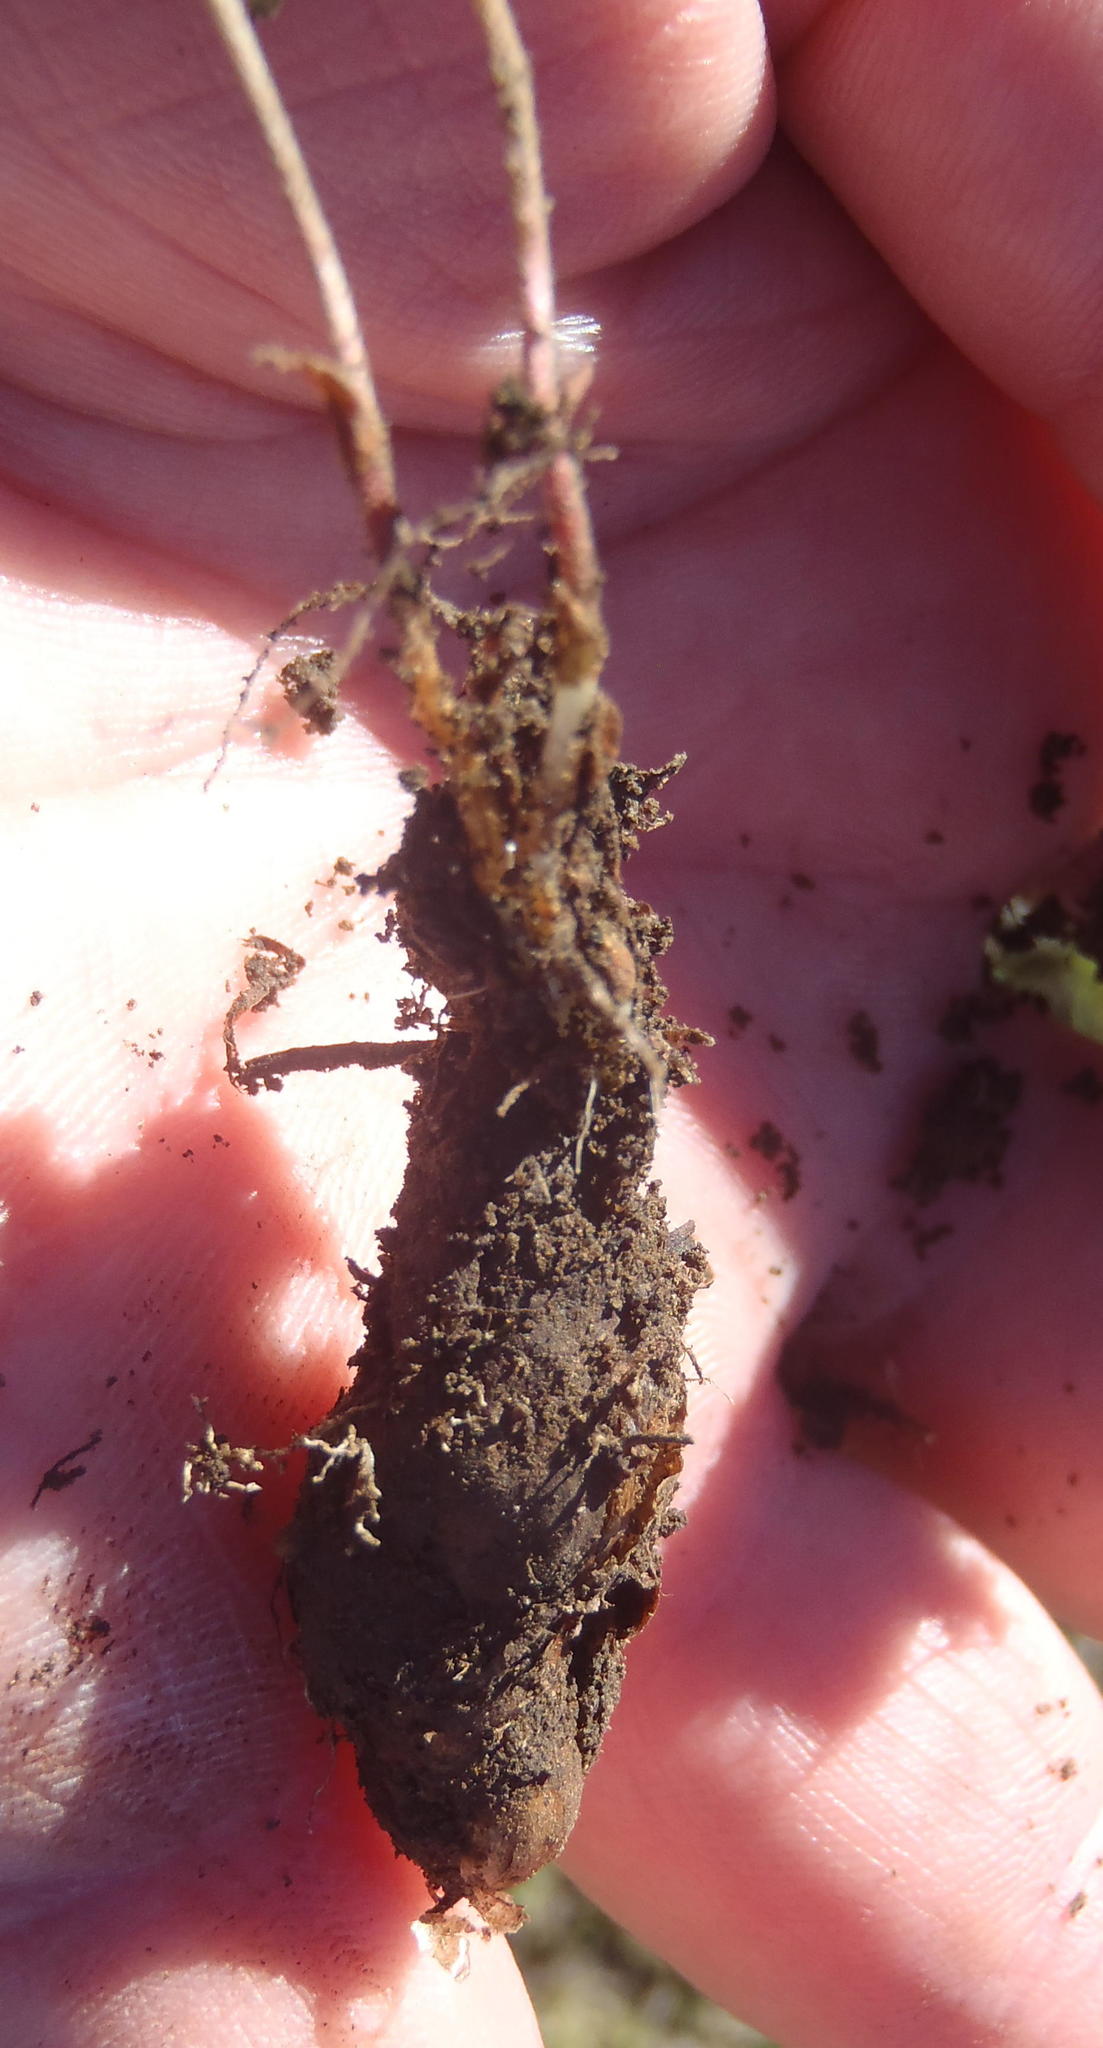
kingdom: Plantae
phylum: Tracheophyta
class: Magnoliopsida
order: Oxalidales
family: Oxalidaceae
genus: Oxalis
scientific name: Oxalis ciliaris
